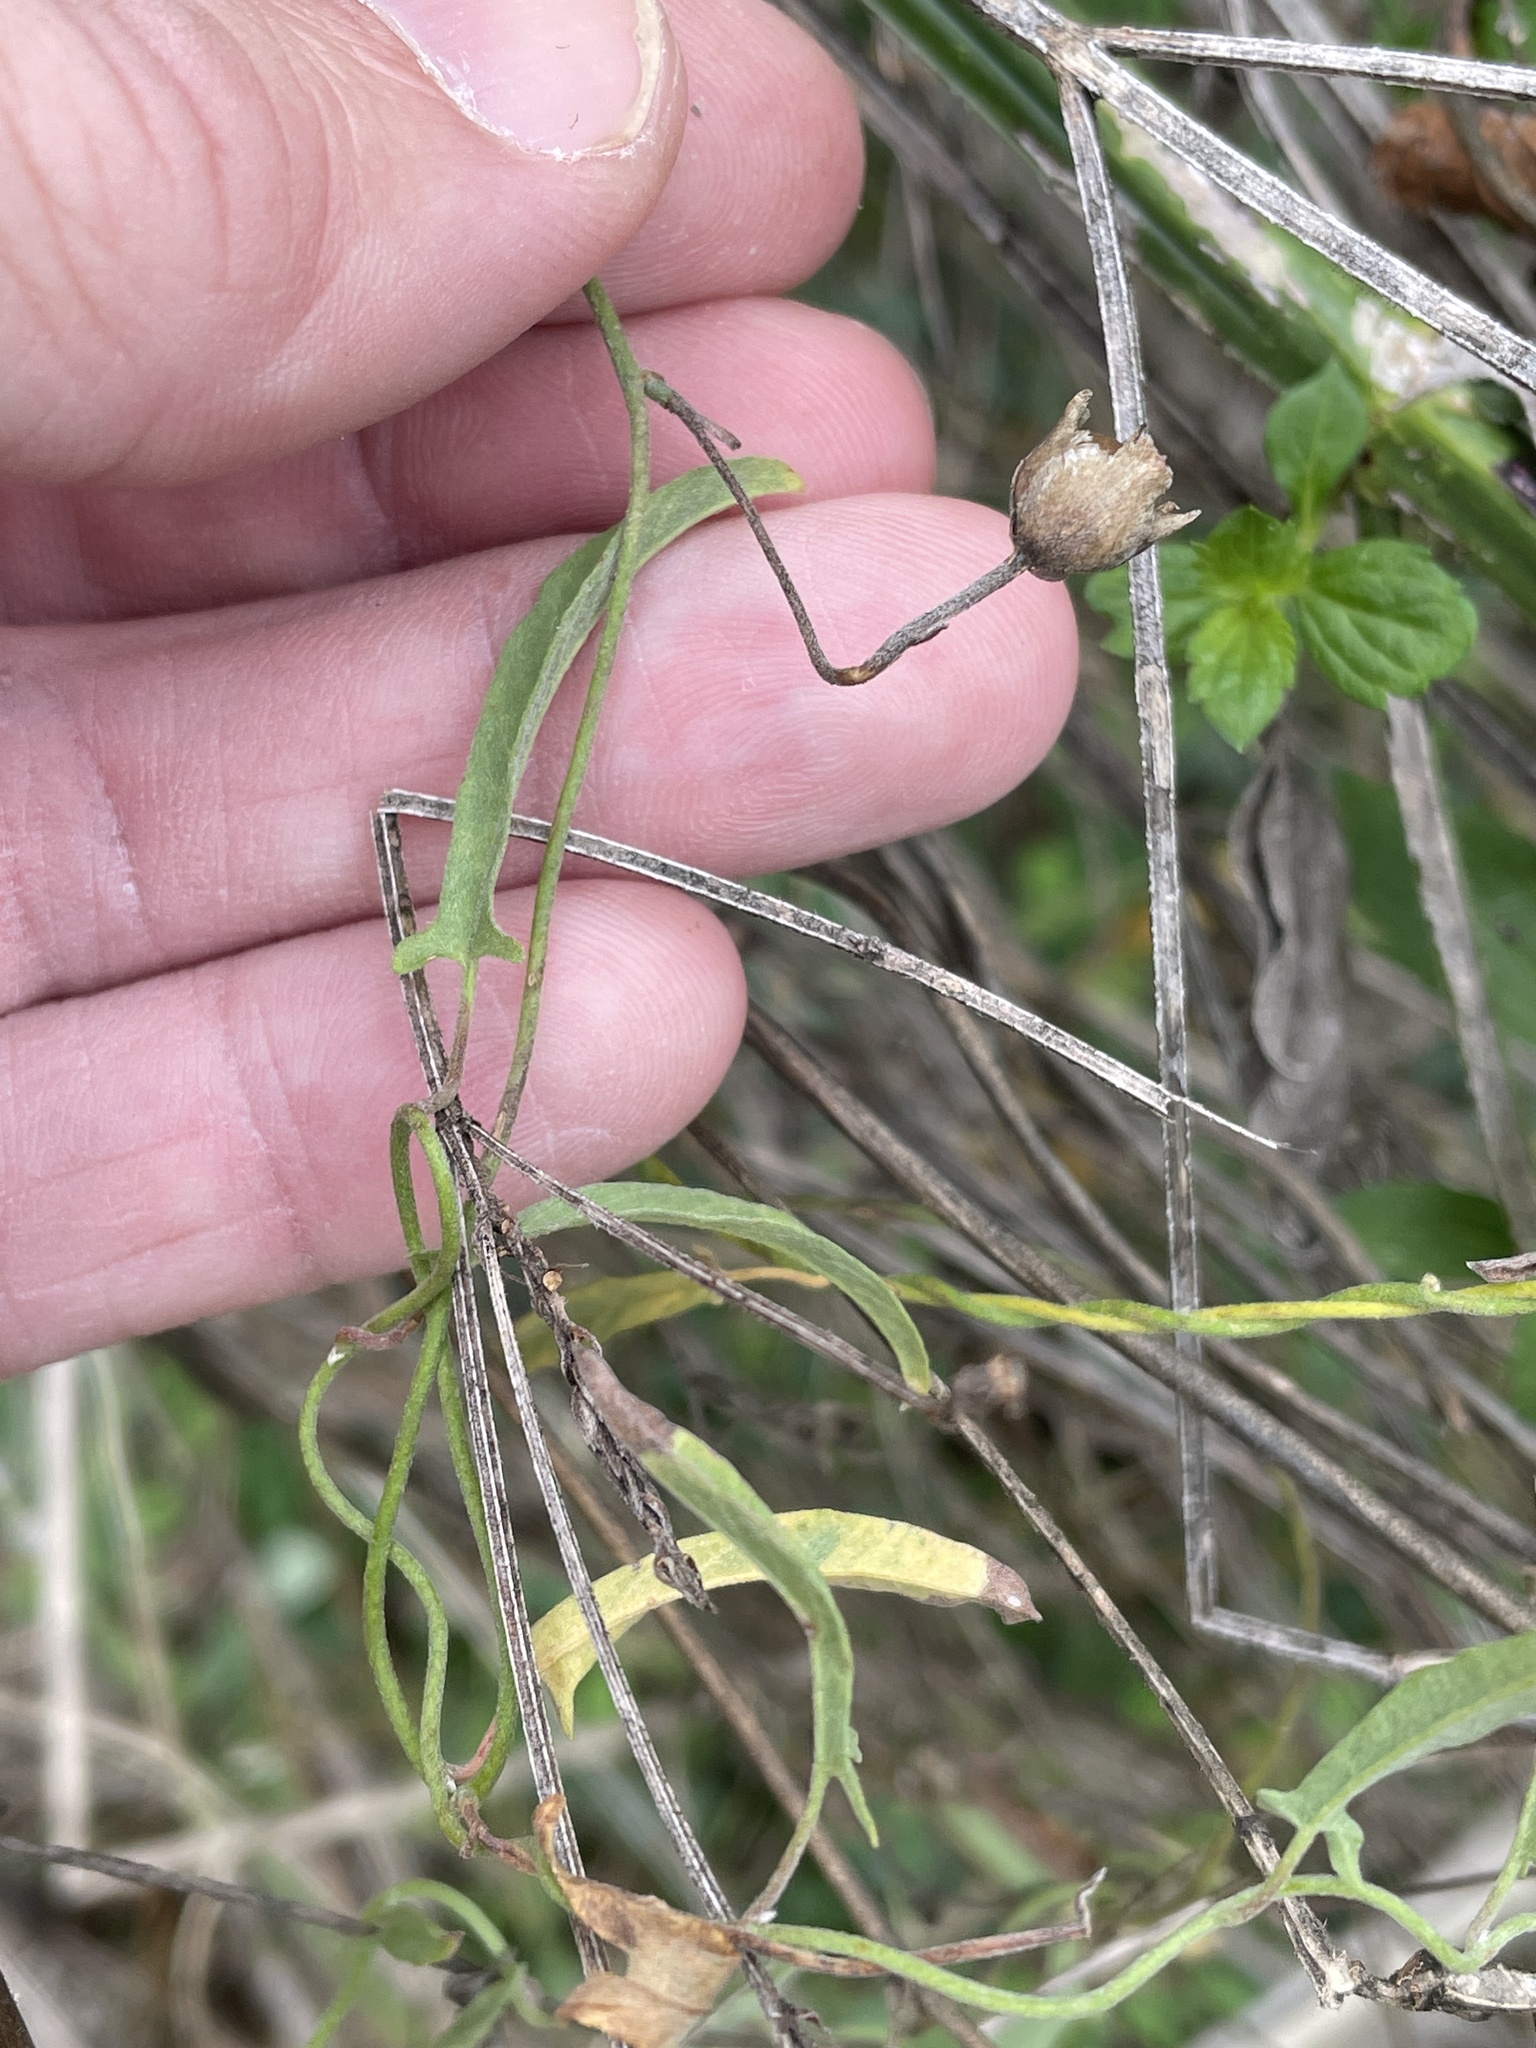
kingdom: Plantae
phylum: Tracheophyta
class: Magnoliopsida
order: Solanales
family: Convolvulaceae
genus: Convolvulus
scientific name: Convolvulus equitans
